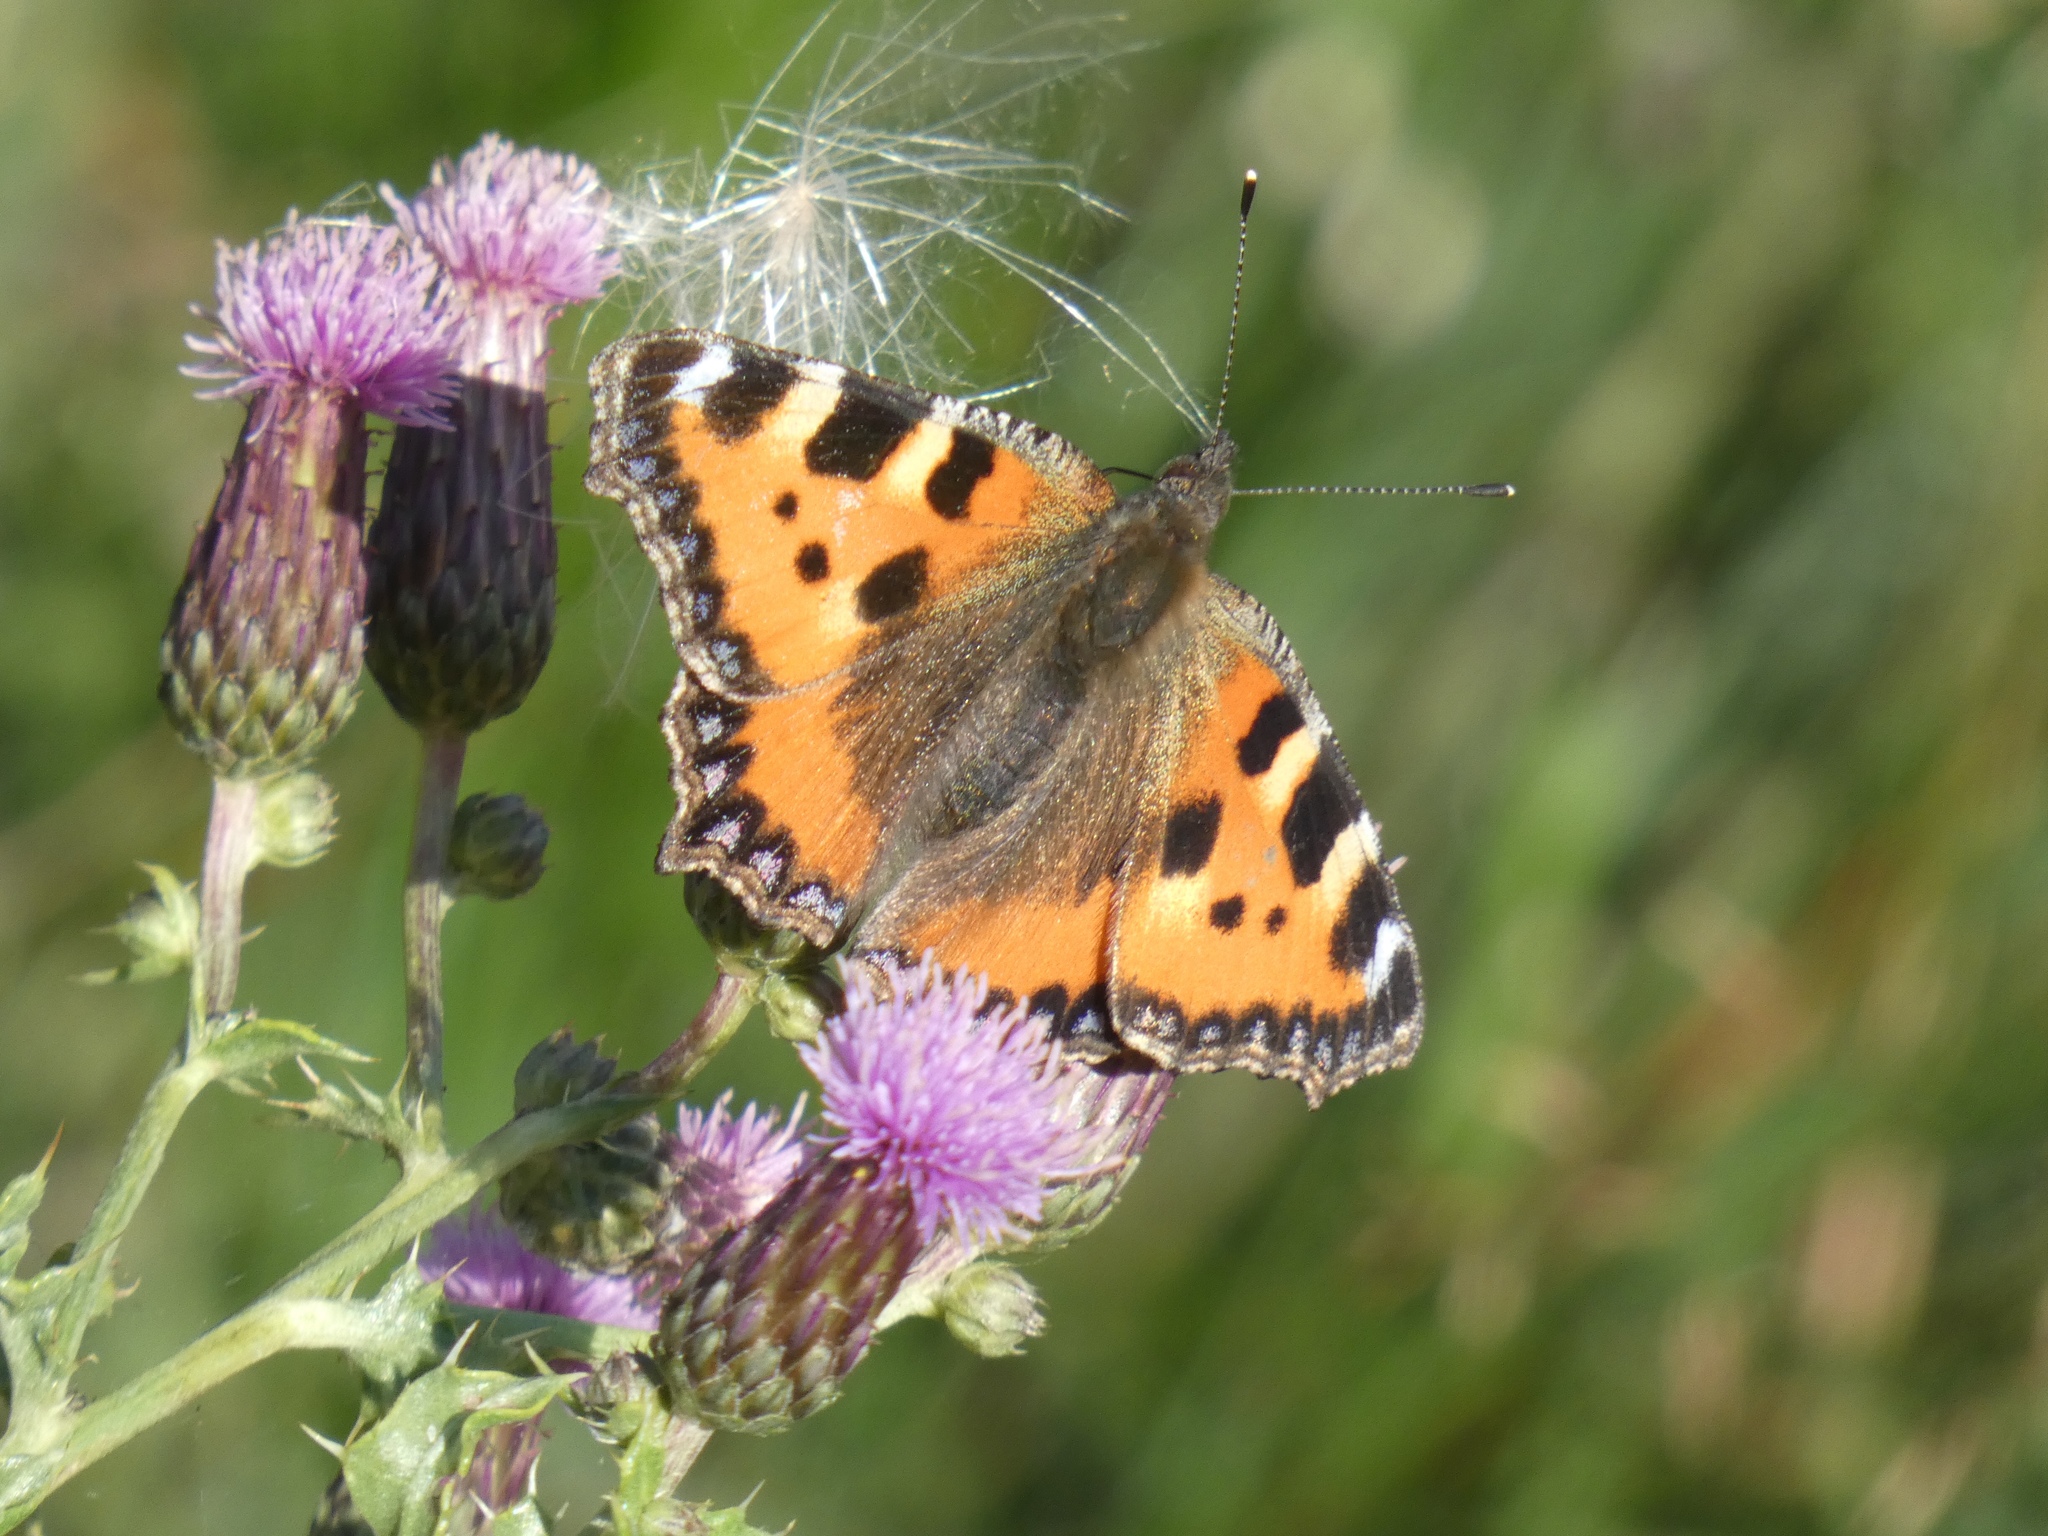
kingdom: Animalia
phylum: Arthropoda
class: Insecta
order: Lepidoptera
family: Nymphalidae
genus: Aglais
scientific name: Aglais urticae
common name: Small tortoiseshell
